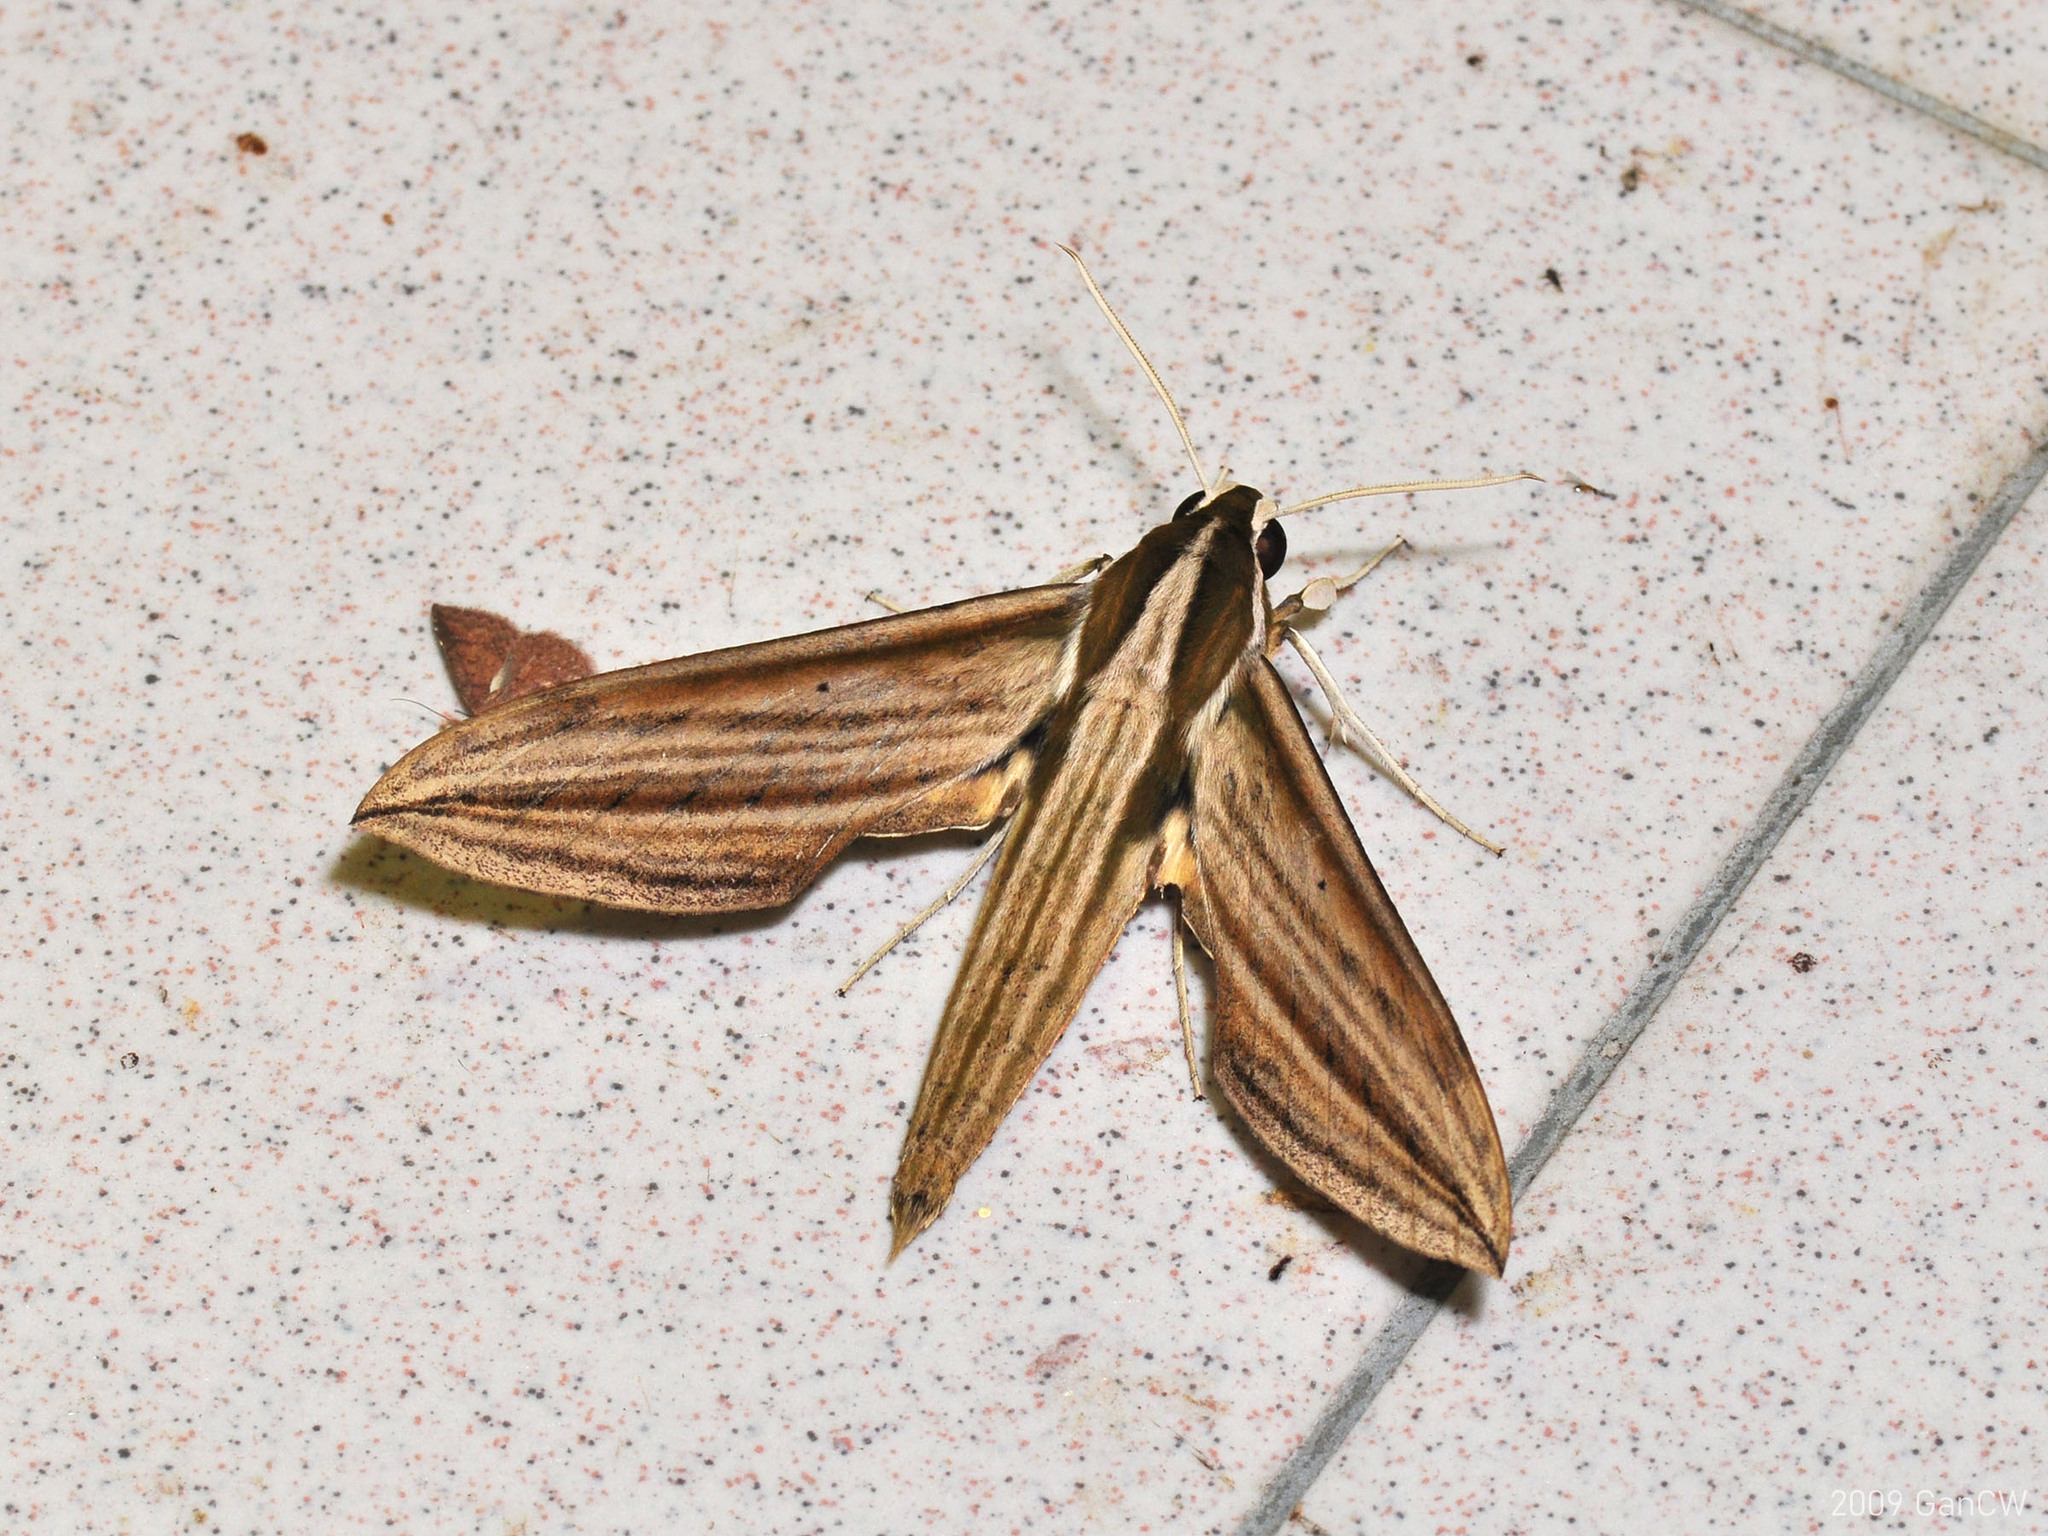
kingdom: Animalia
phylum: Arthropoda
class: Insecta
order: Lepidoptera
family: Sphingidae
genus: Cechetra
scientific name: Cechetra lineosa
